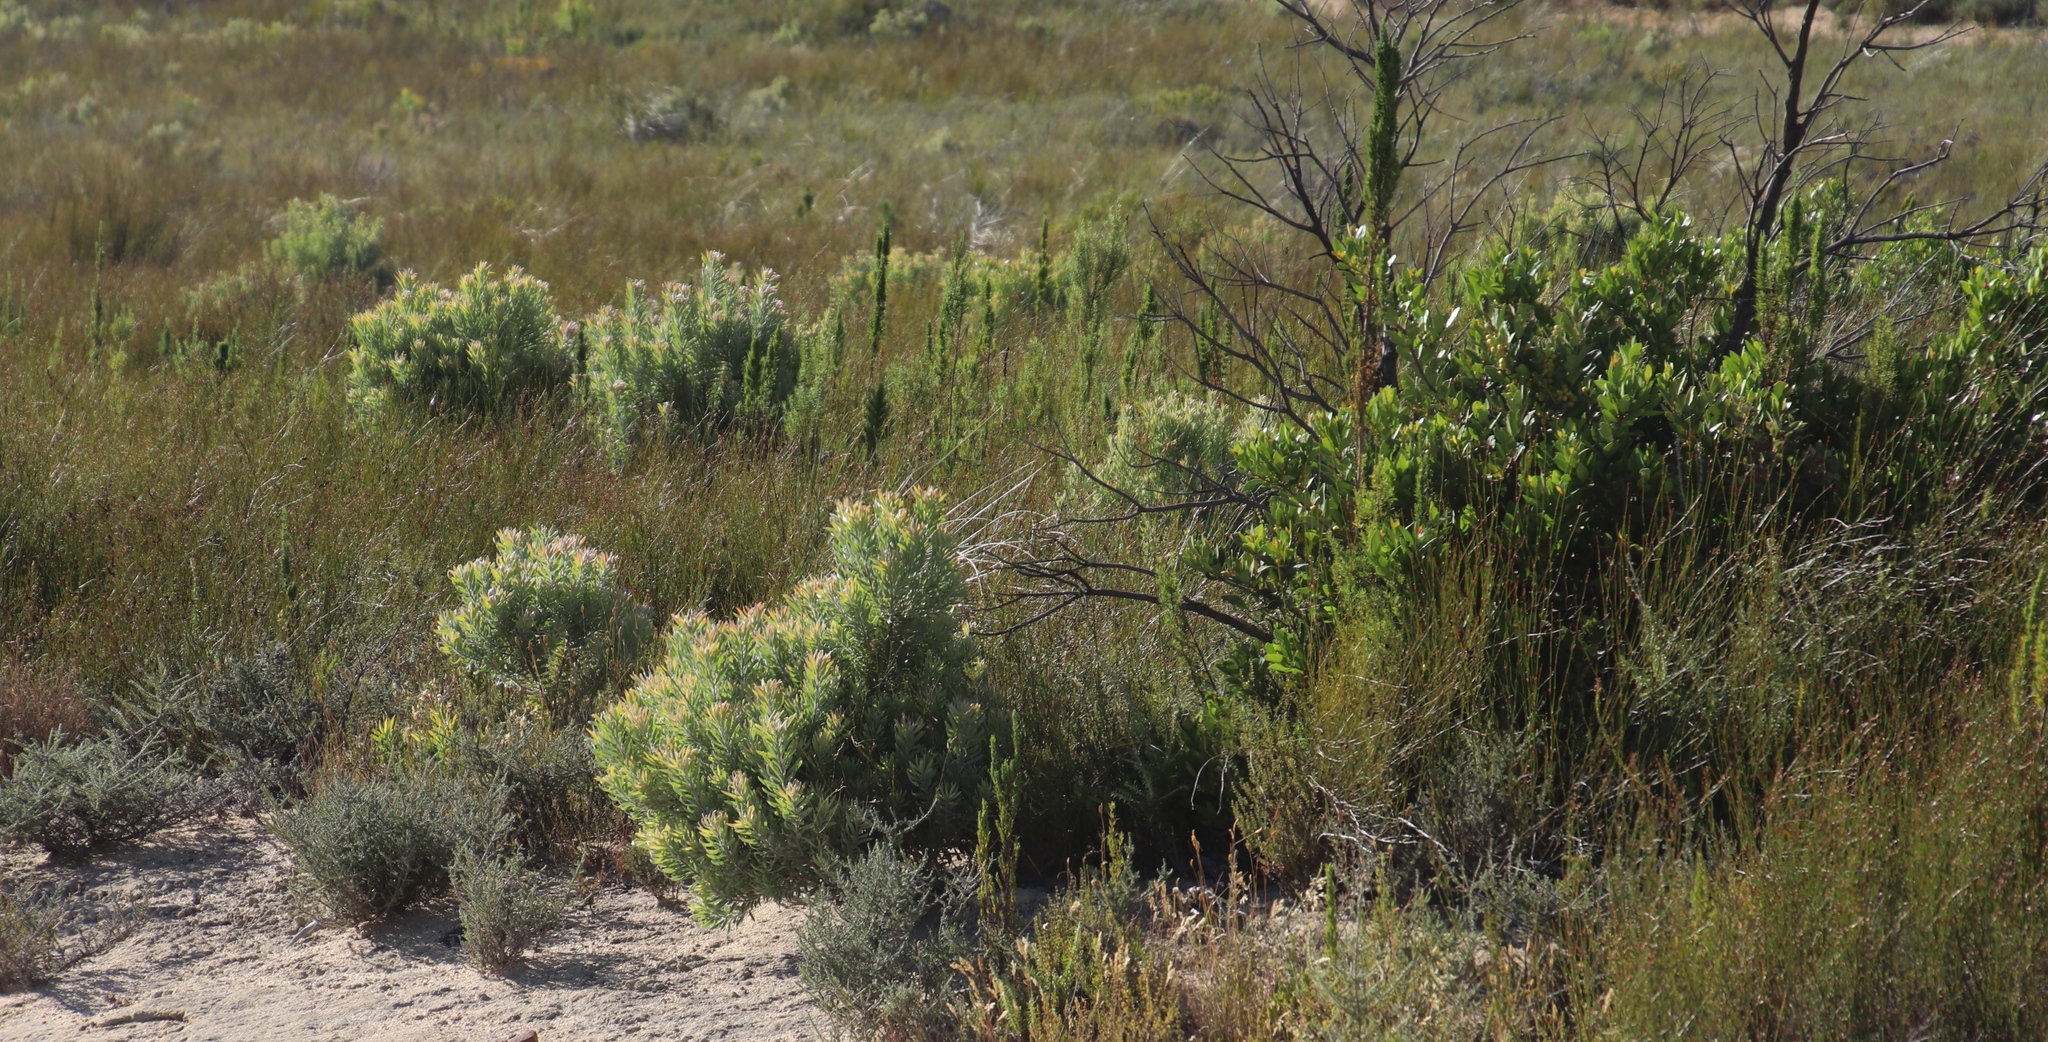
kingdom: Plantae
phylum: Tracheophyta
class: Magnoliopsida
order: Proteales
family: Proteaceae
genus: Leucadendron
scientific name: Leucadendron rubrum
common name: Spinning top
